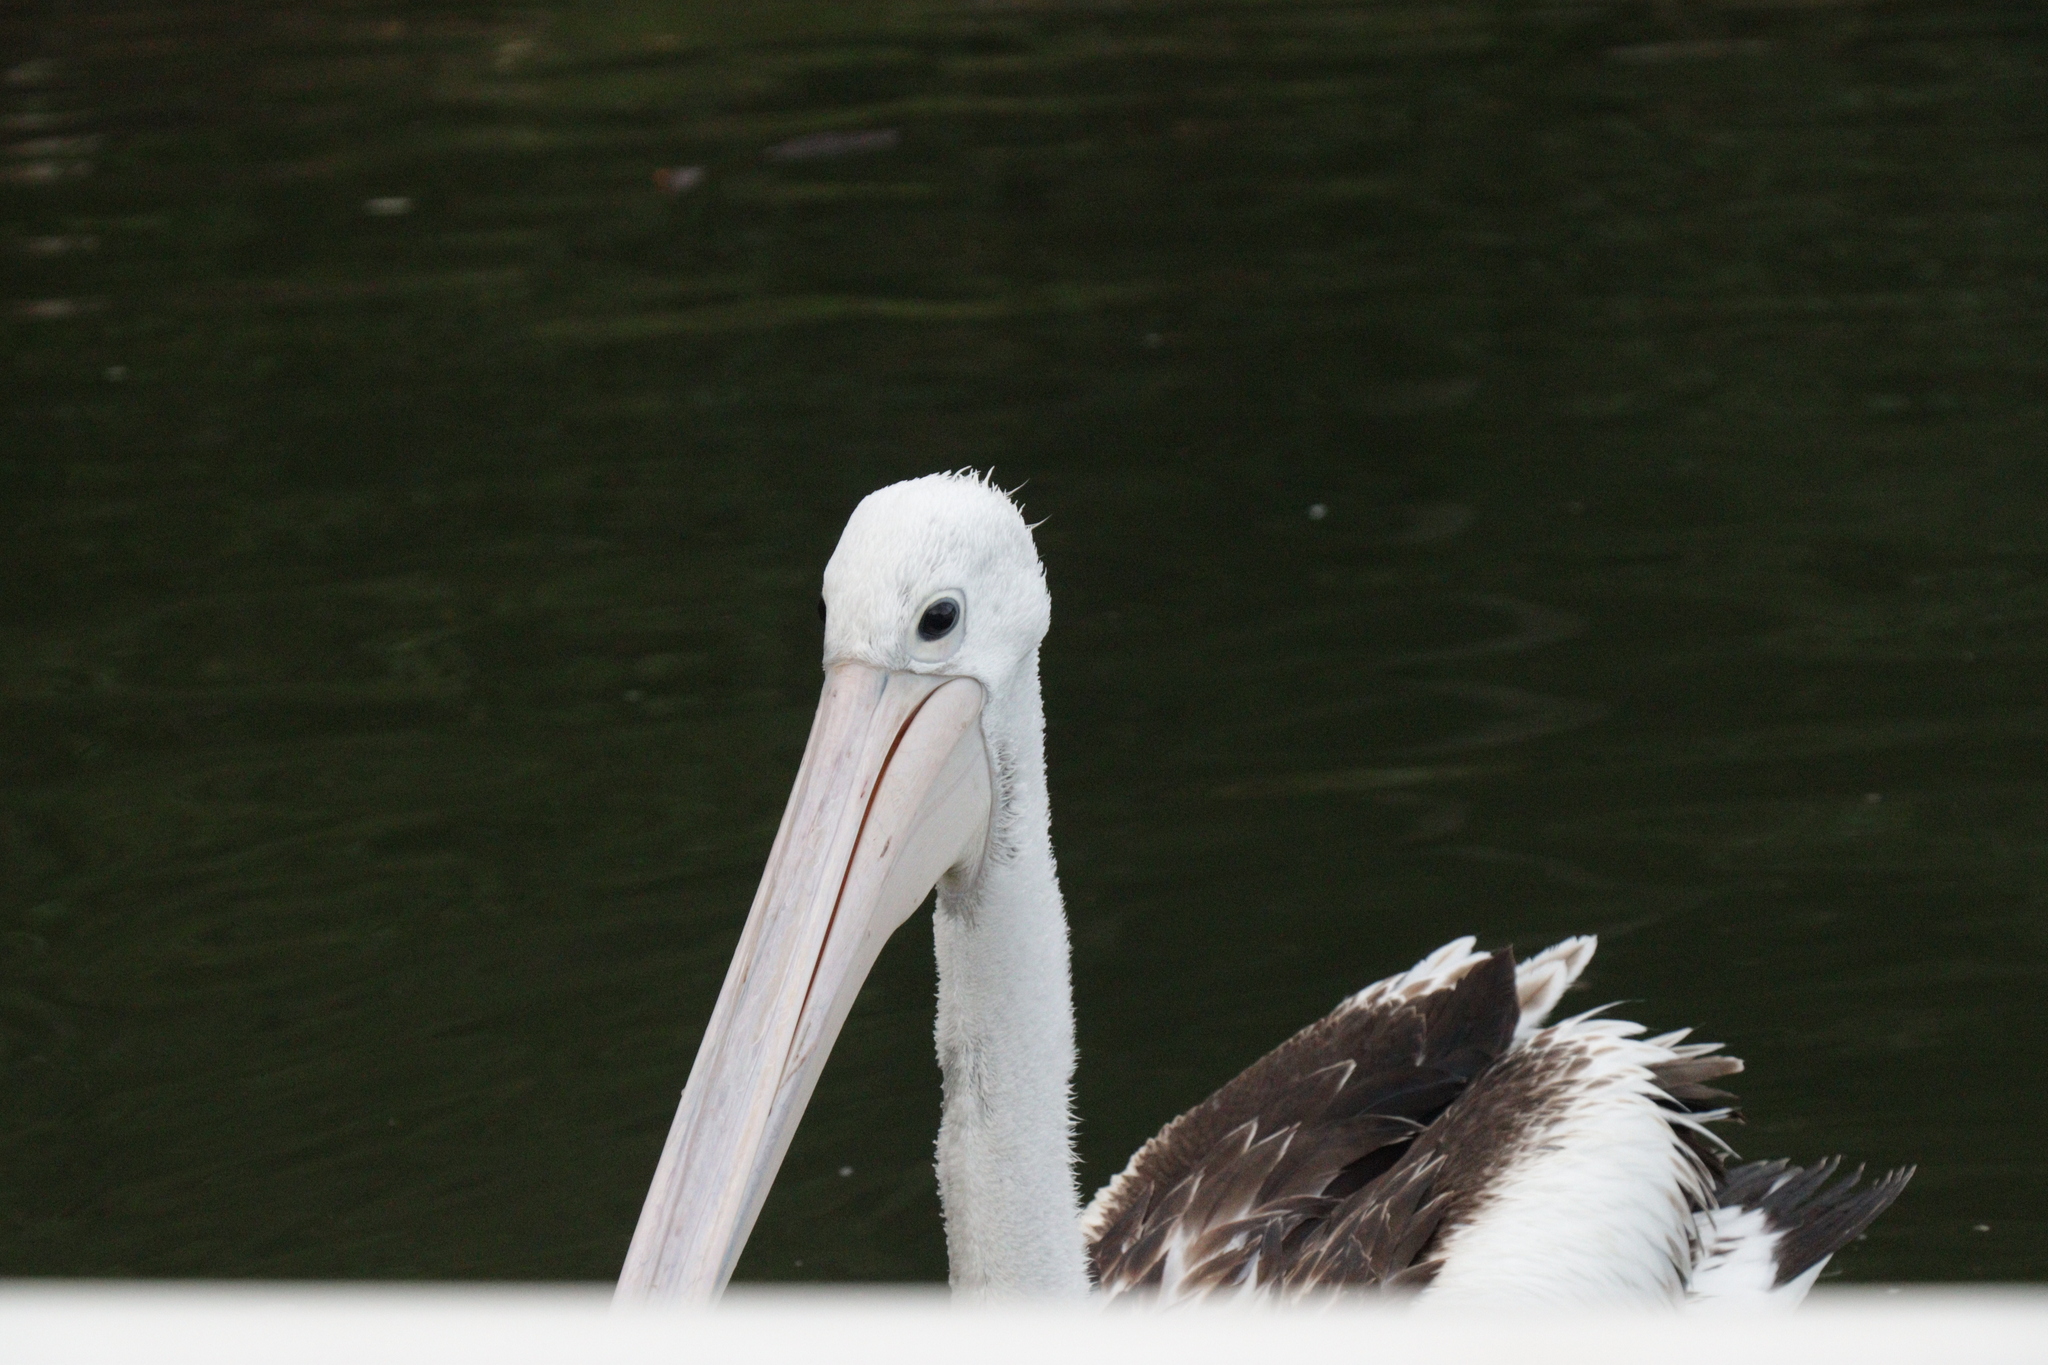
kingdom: Animalia
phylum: Chordata
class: Aves
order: Pelecaniformes
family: Pelecanidae
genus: Pelecanus
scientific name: Pelecanus conspicillatus
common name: Australian pelican
